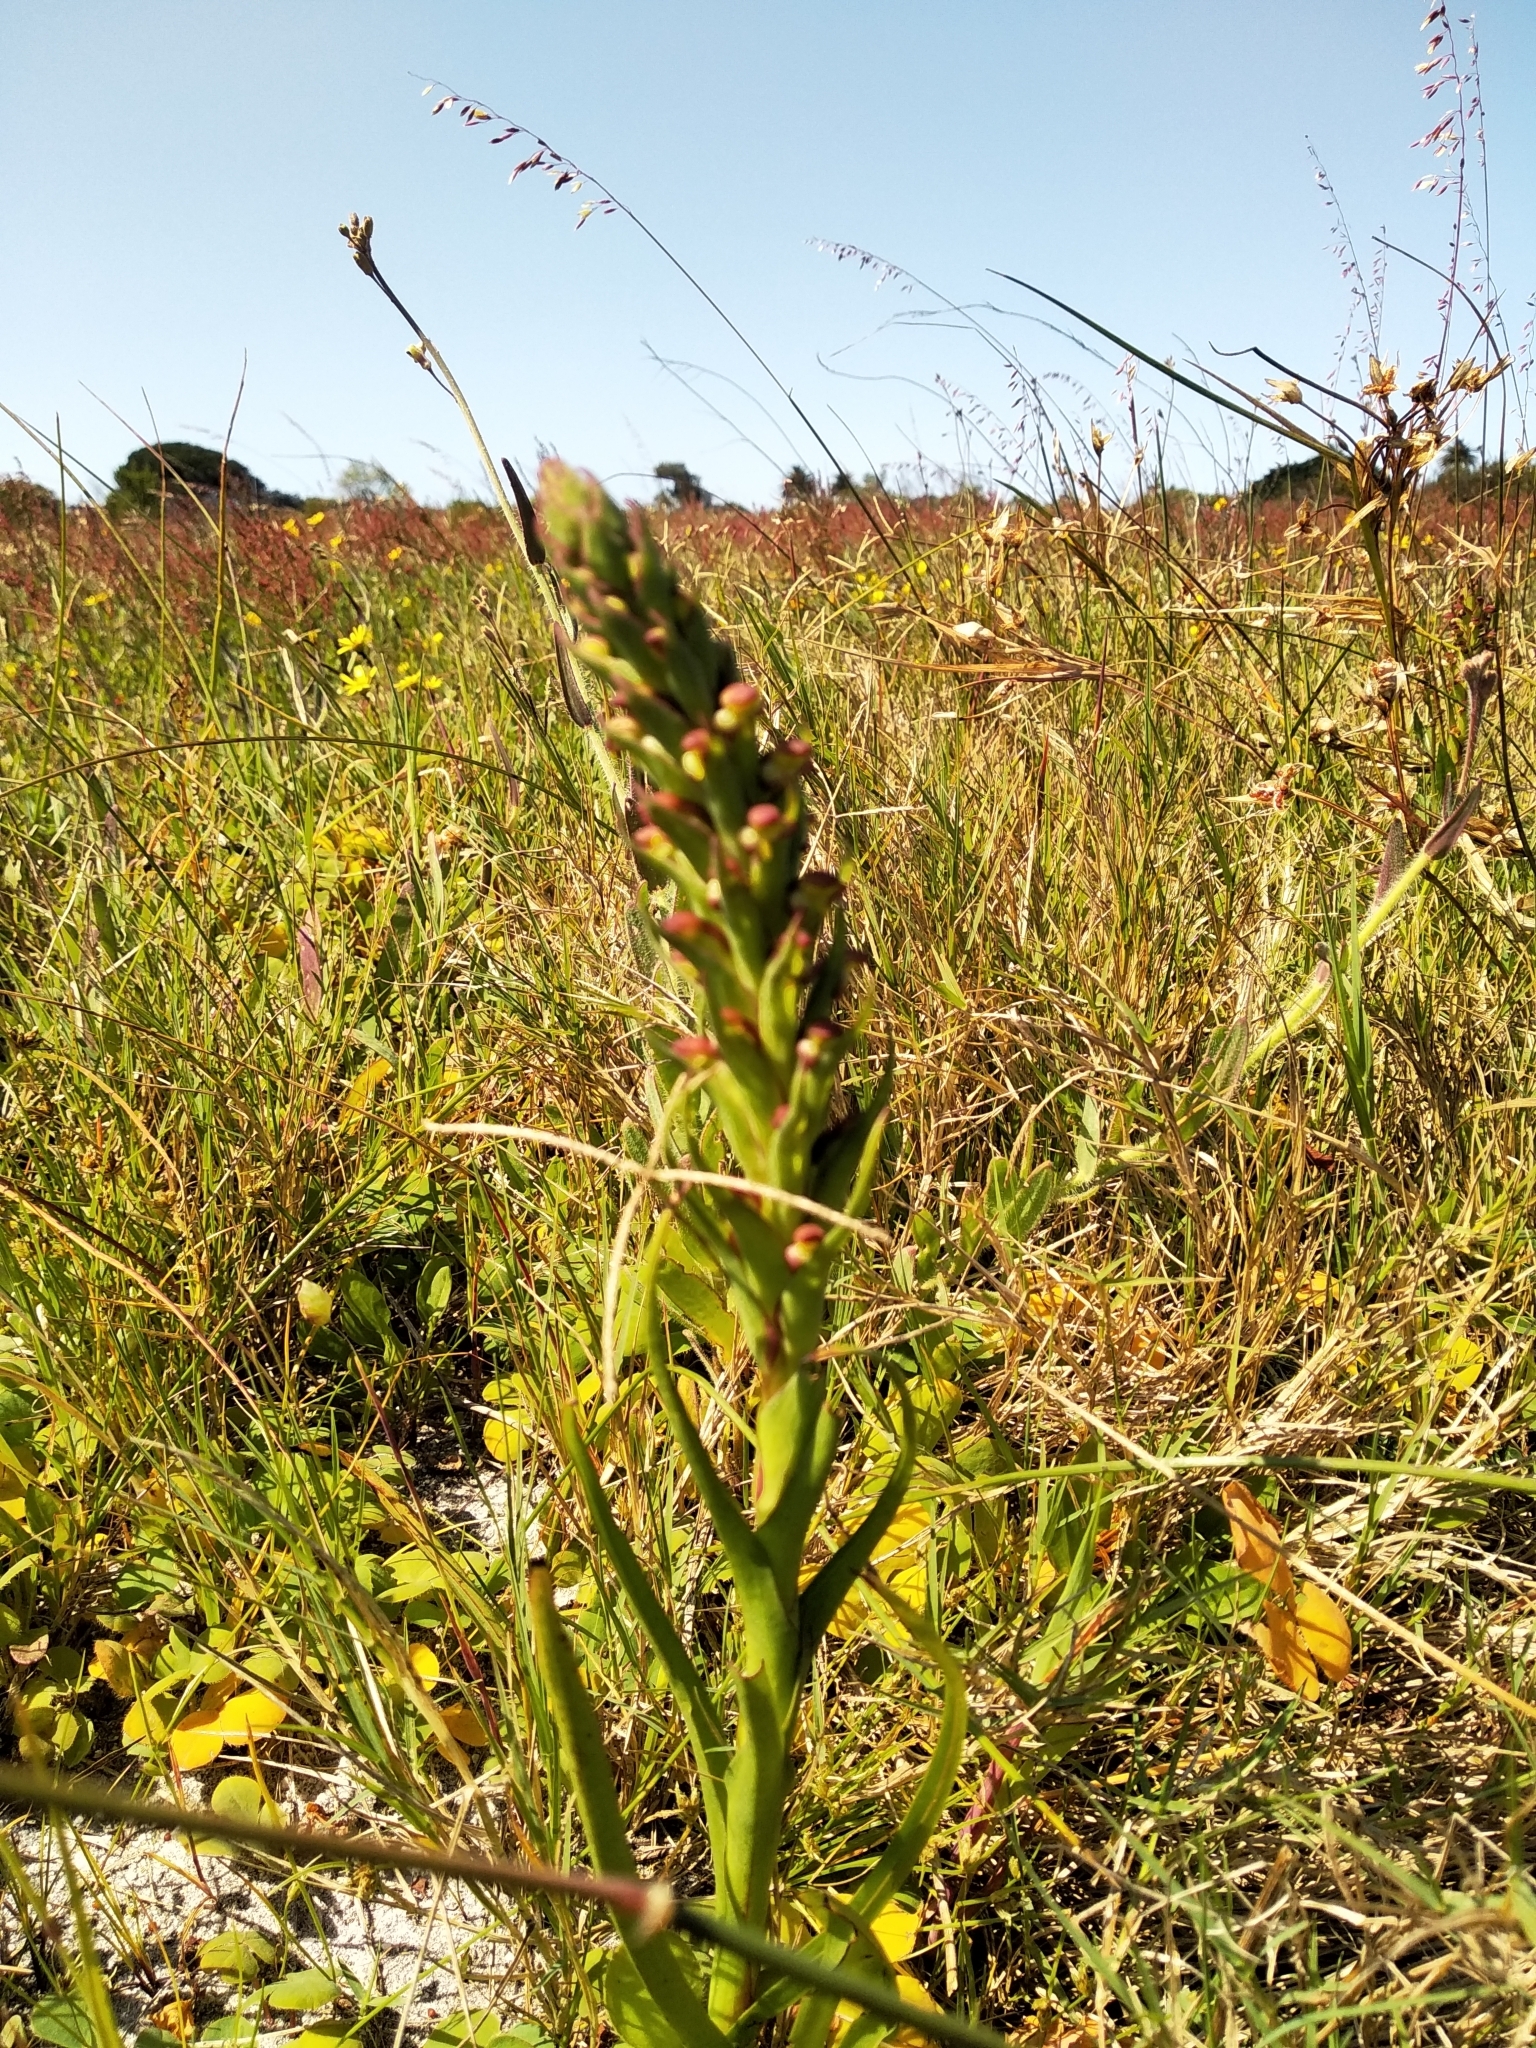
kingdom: Plantae
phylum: Tracheophyta
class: Liliopsida
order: Asparagales
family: Orchidaceae
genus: Disa
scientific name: Disa bracteata
